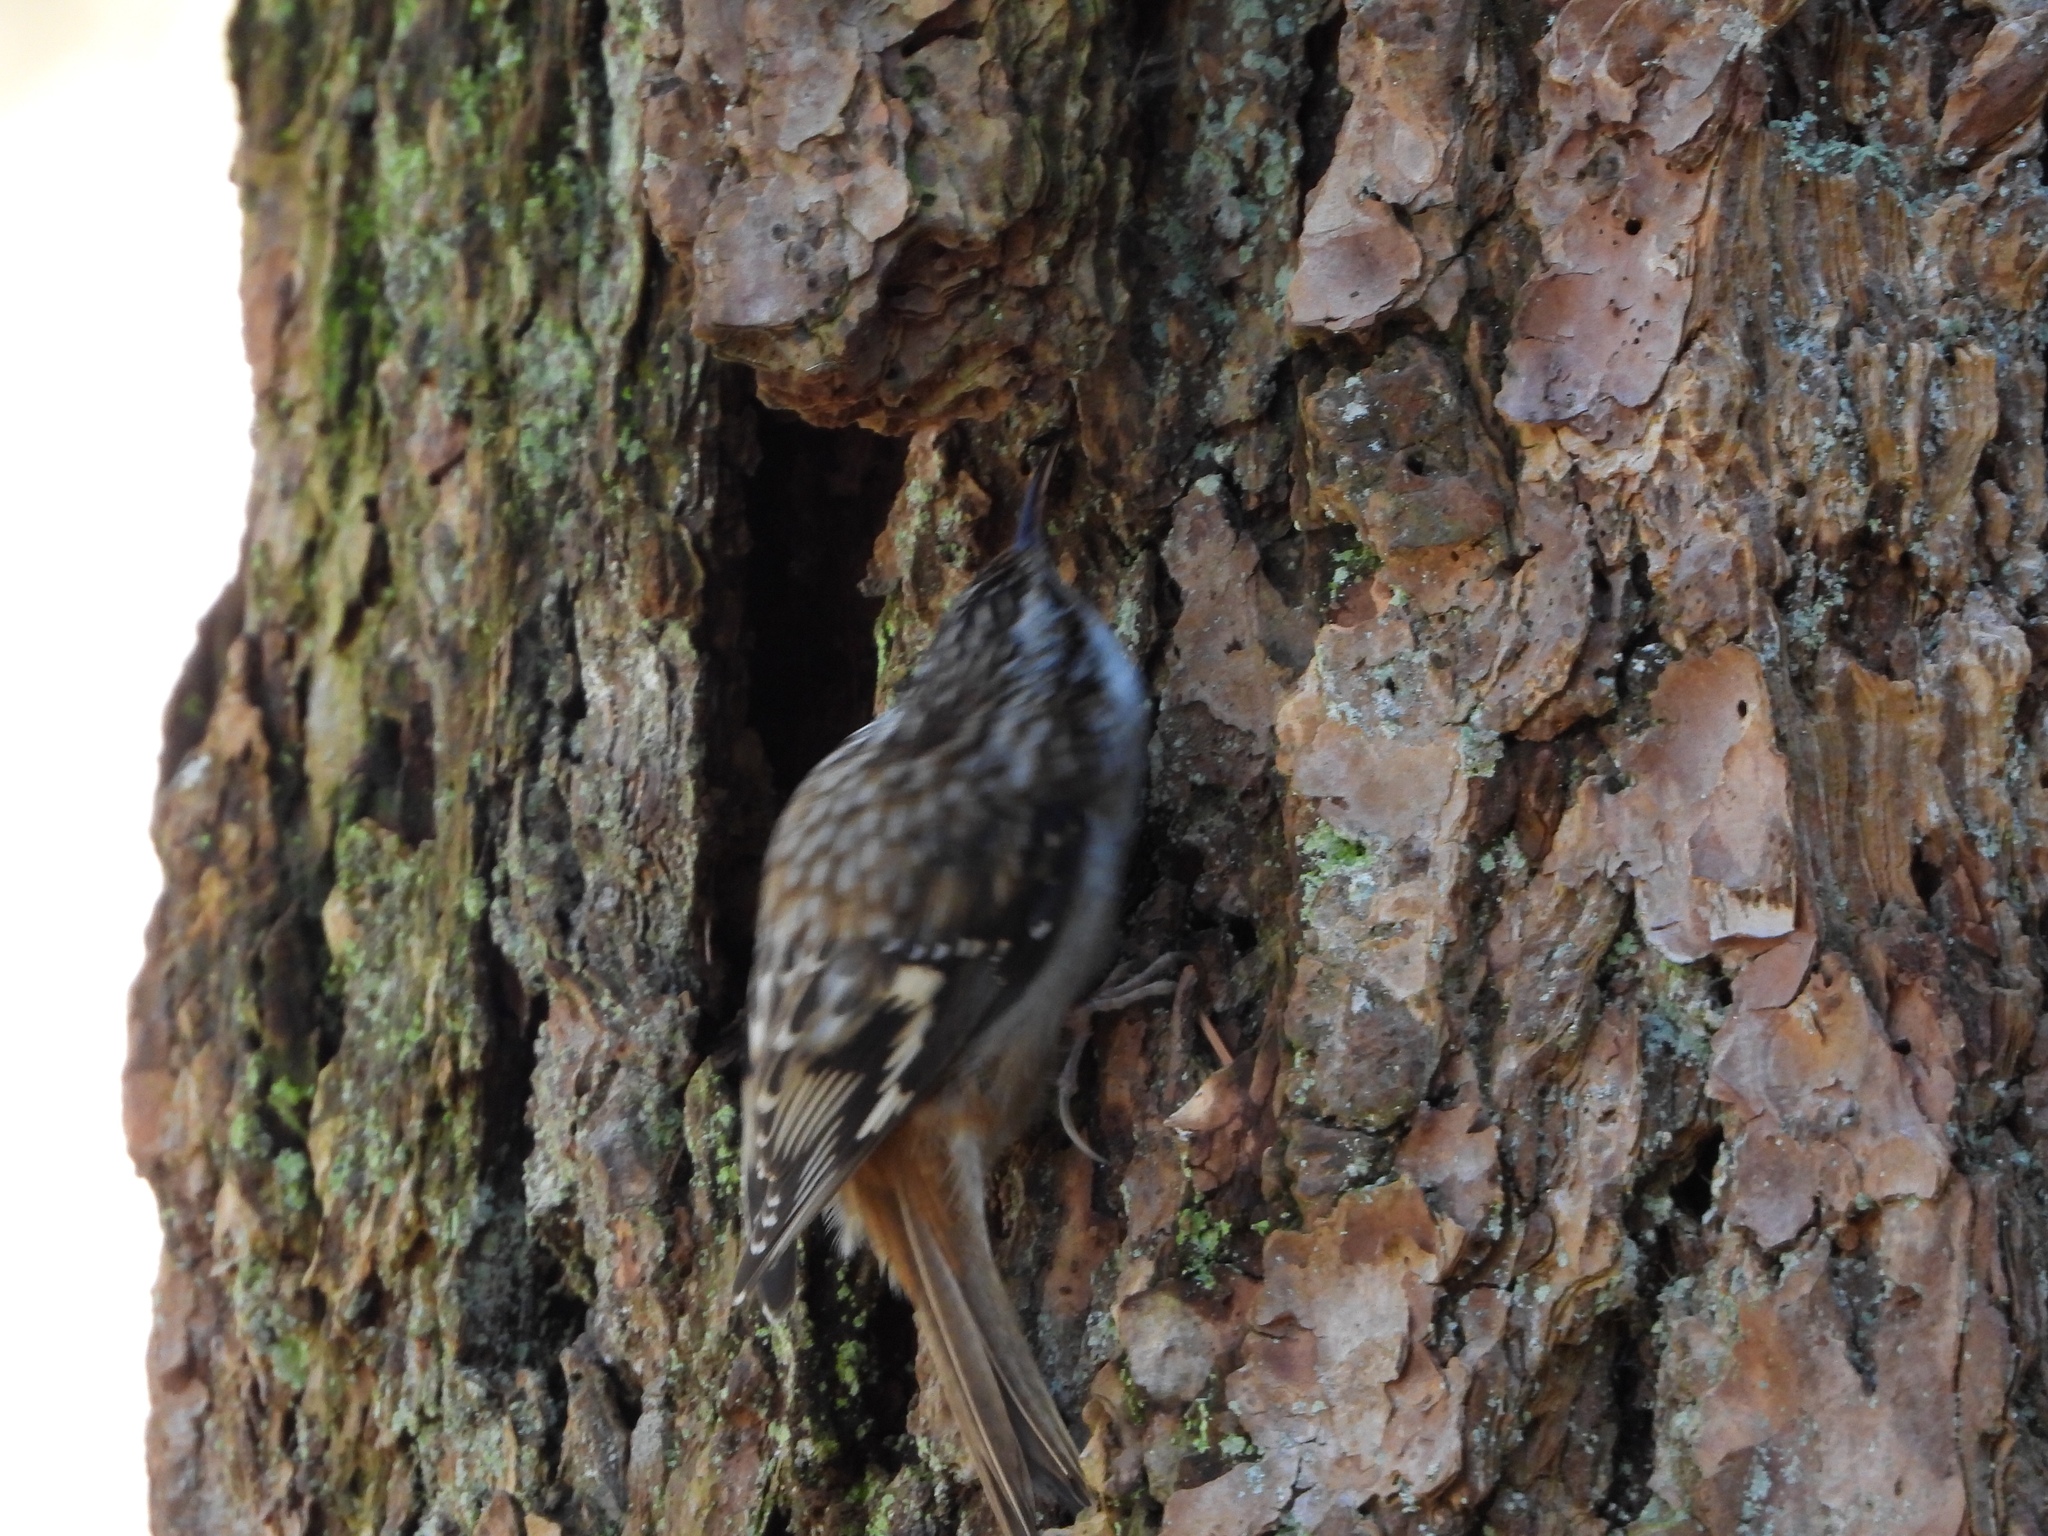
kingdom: Animalia
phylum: Chordata
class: Aves
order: Passeriformes
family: Certhiidae
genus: Certhia
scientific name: Certhia americana
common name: Brown creeper
